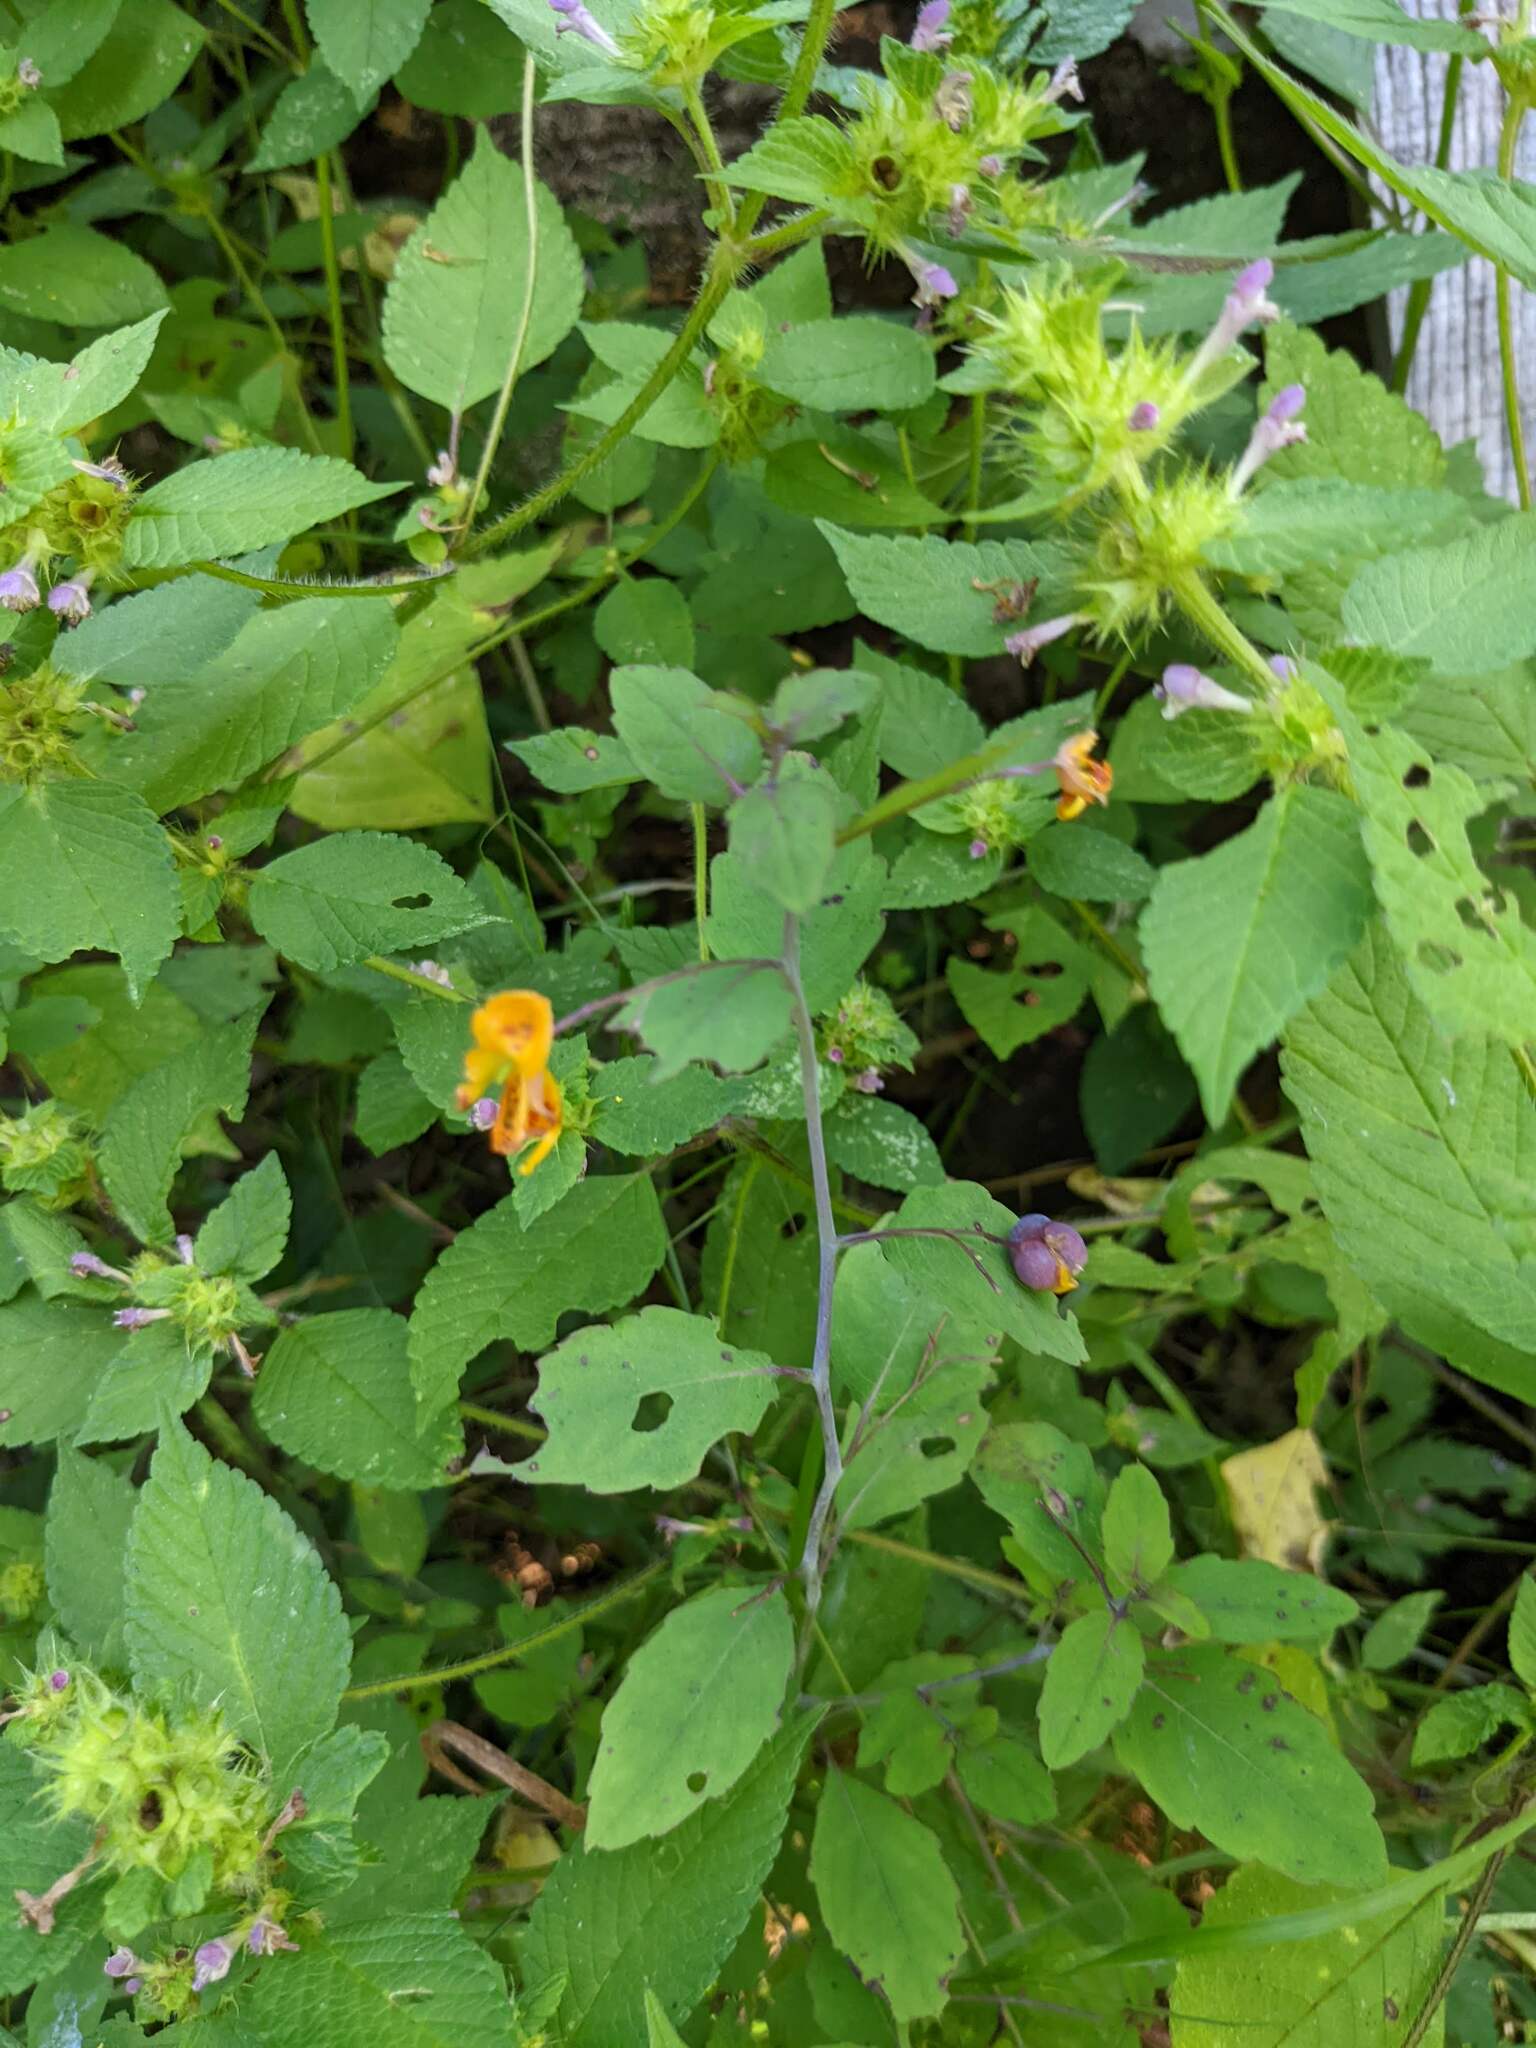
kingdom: Plantae
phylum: Tracheophyta
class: Magnoliopsida
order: Ericales
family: Balsaminaceae
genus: Impatiens
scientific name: Impatiens capensis
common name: Orange balsam
